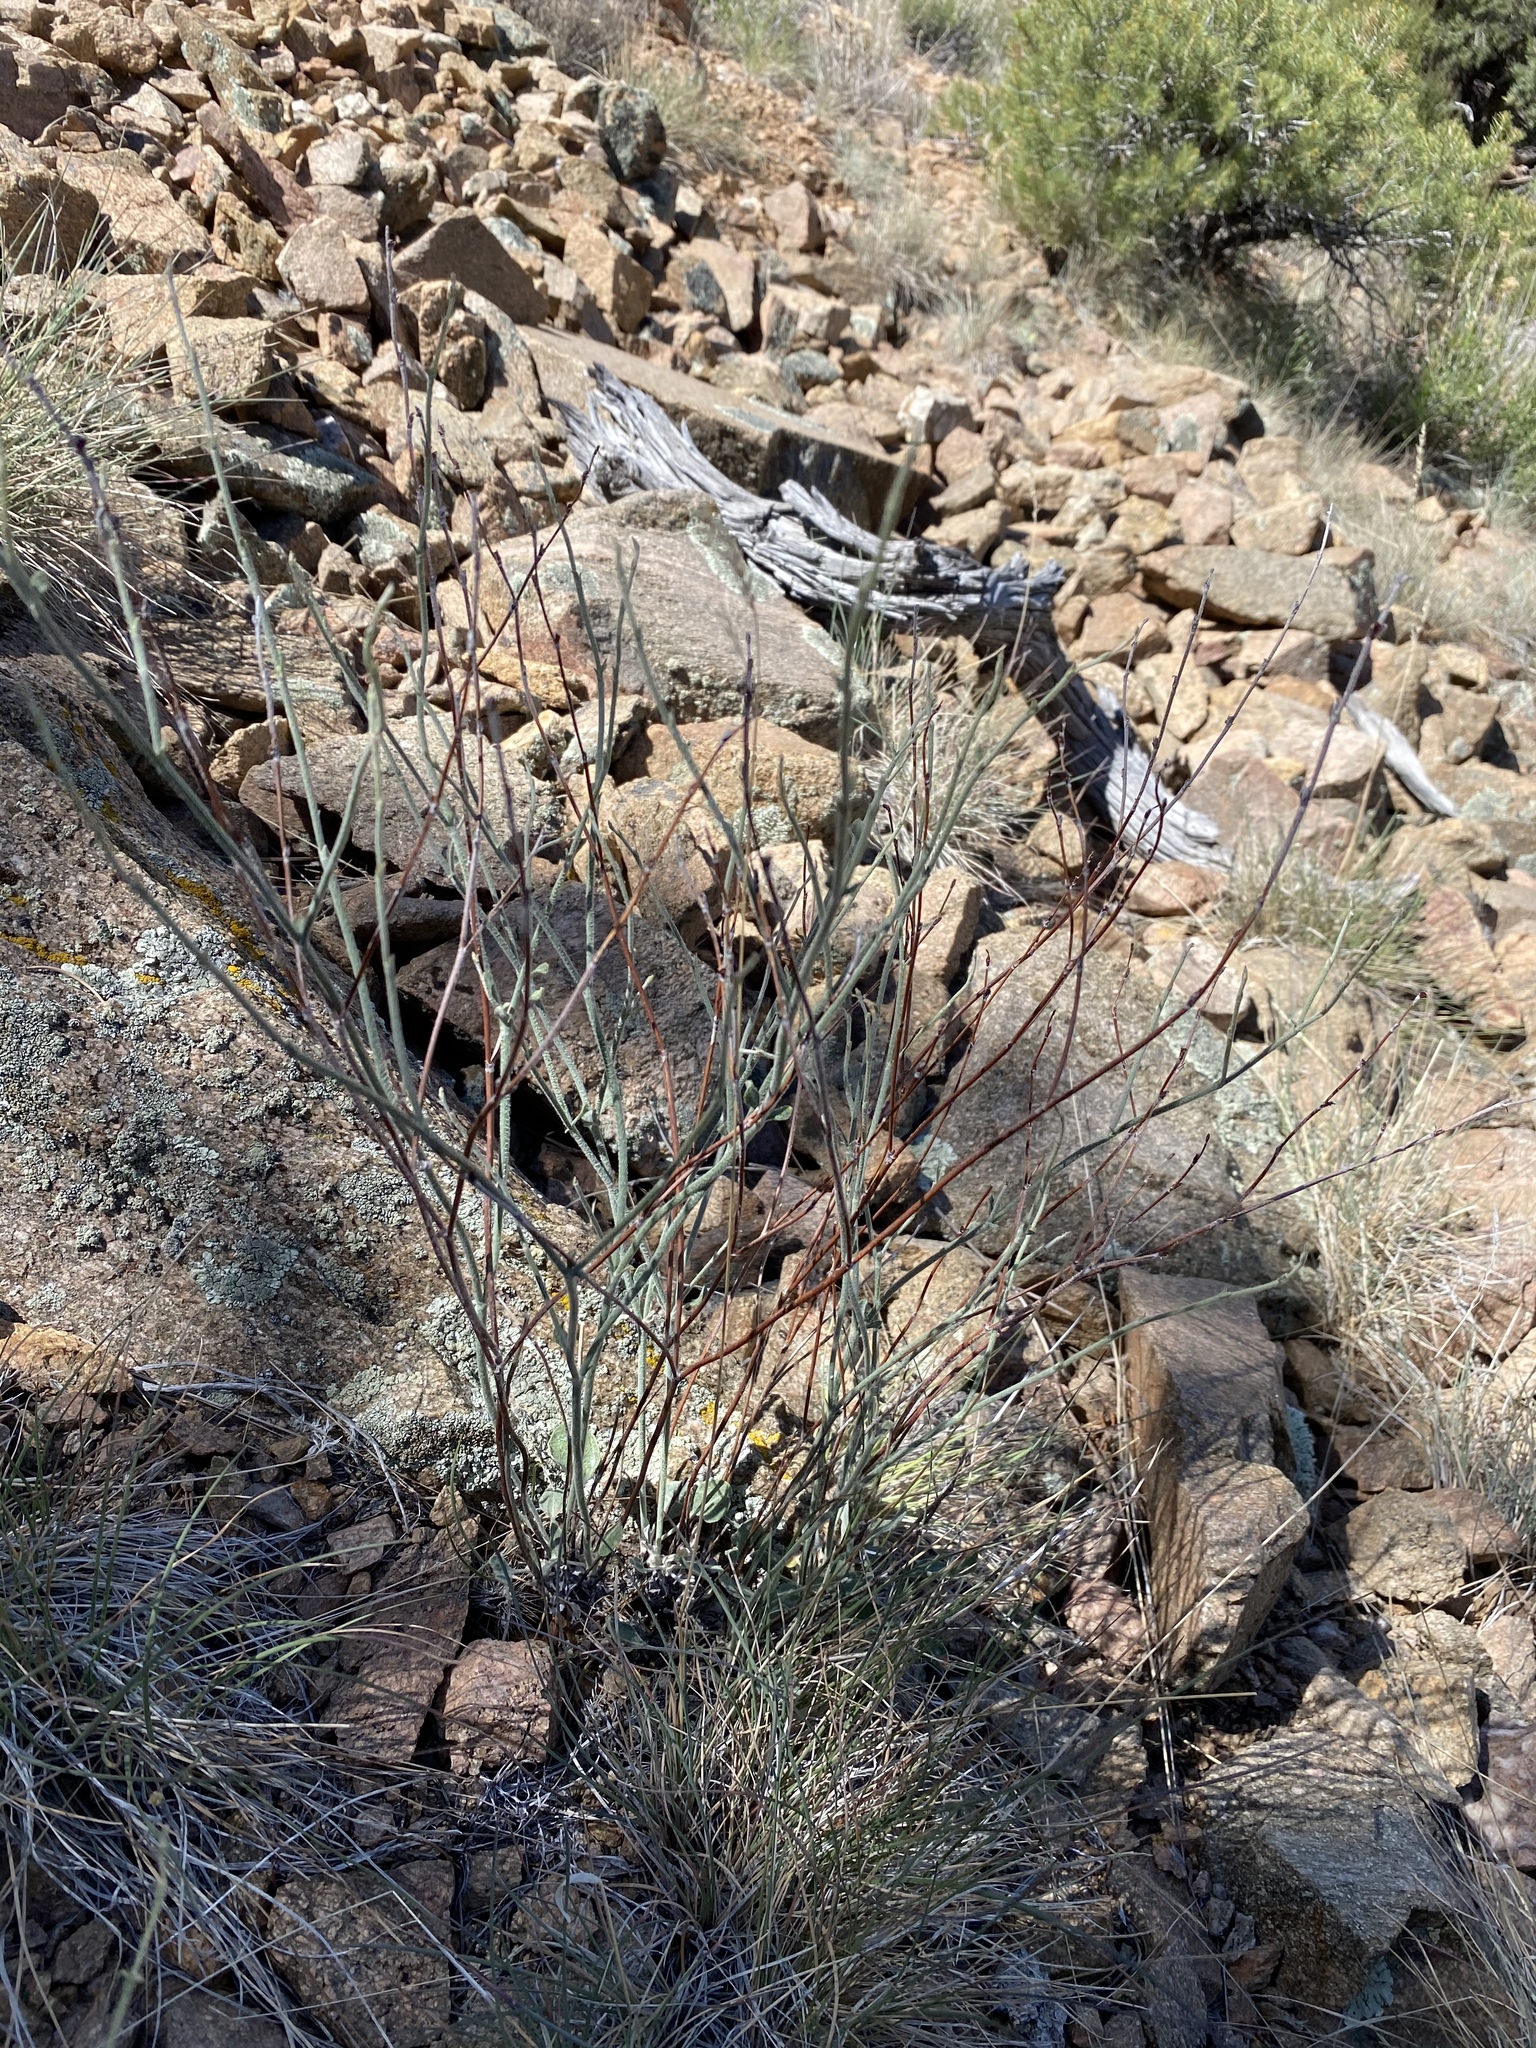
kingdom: Plantae
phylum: Tracheophyta
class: Magnoliopsida
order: Caryophyllales
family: Polygonaceae
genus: Eriogonum
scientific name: Eriogonum panamintense
